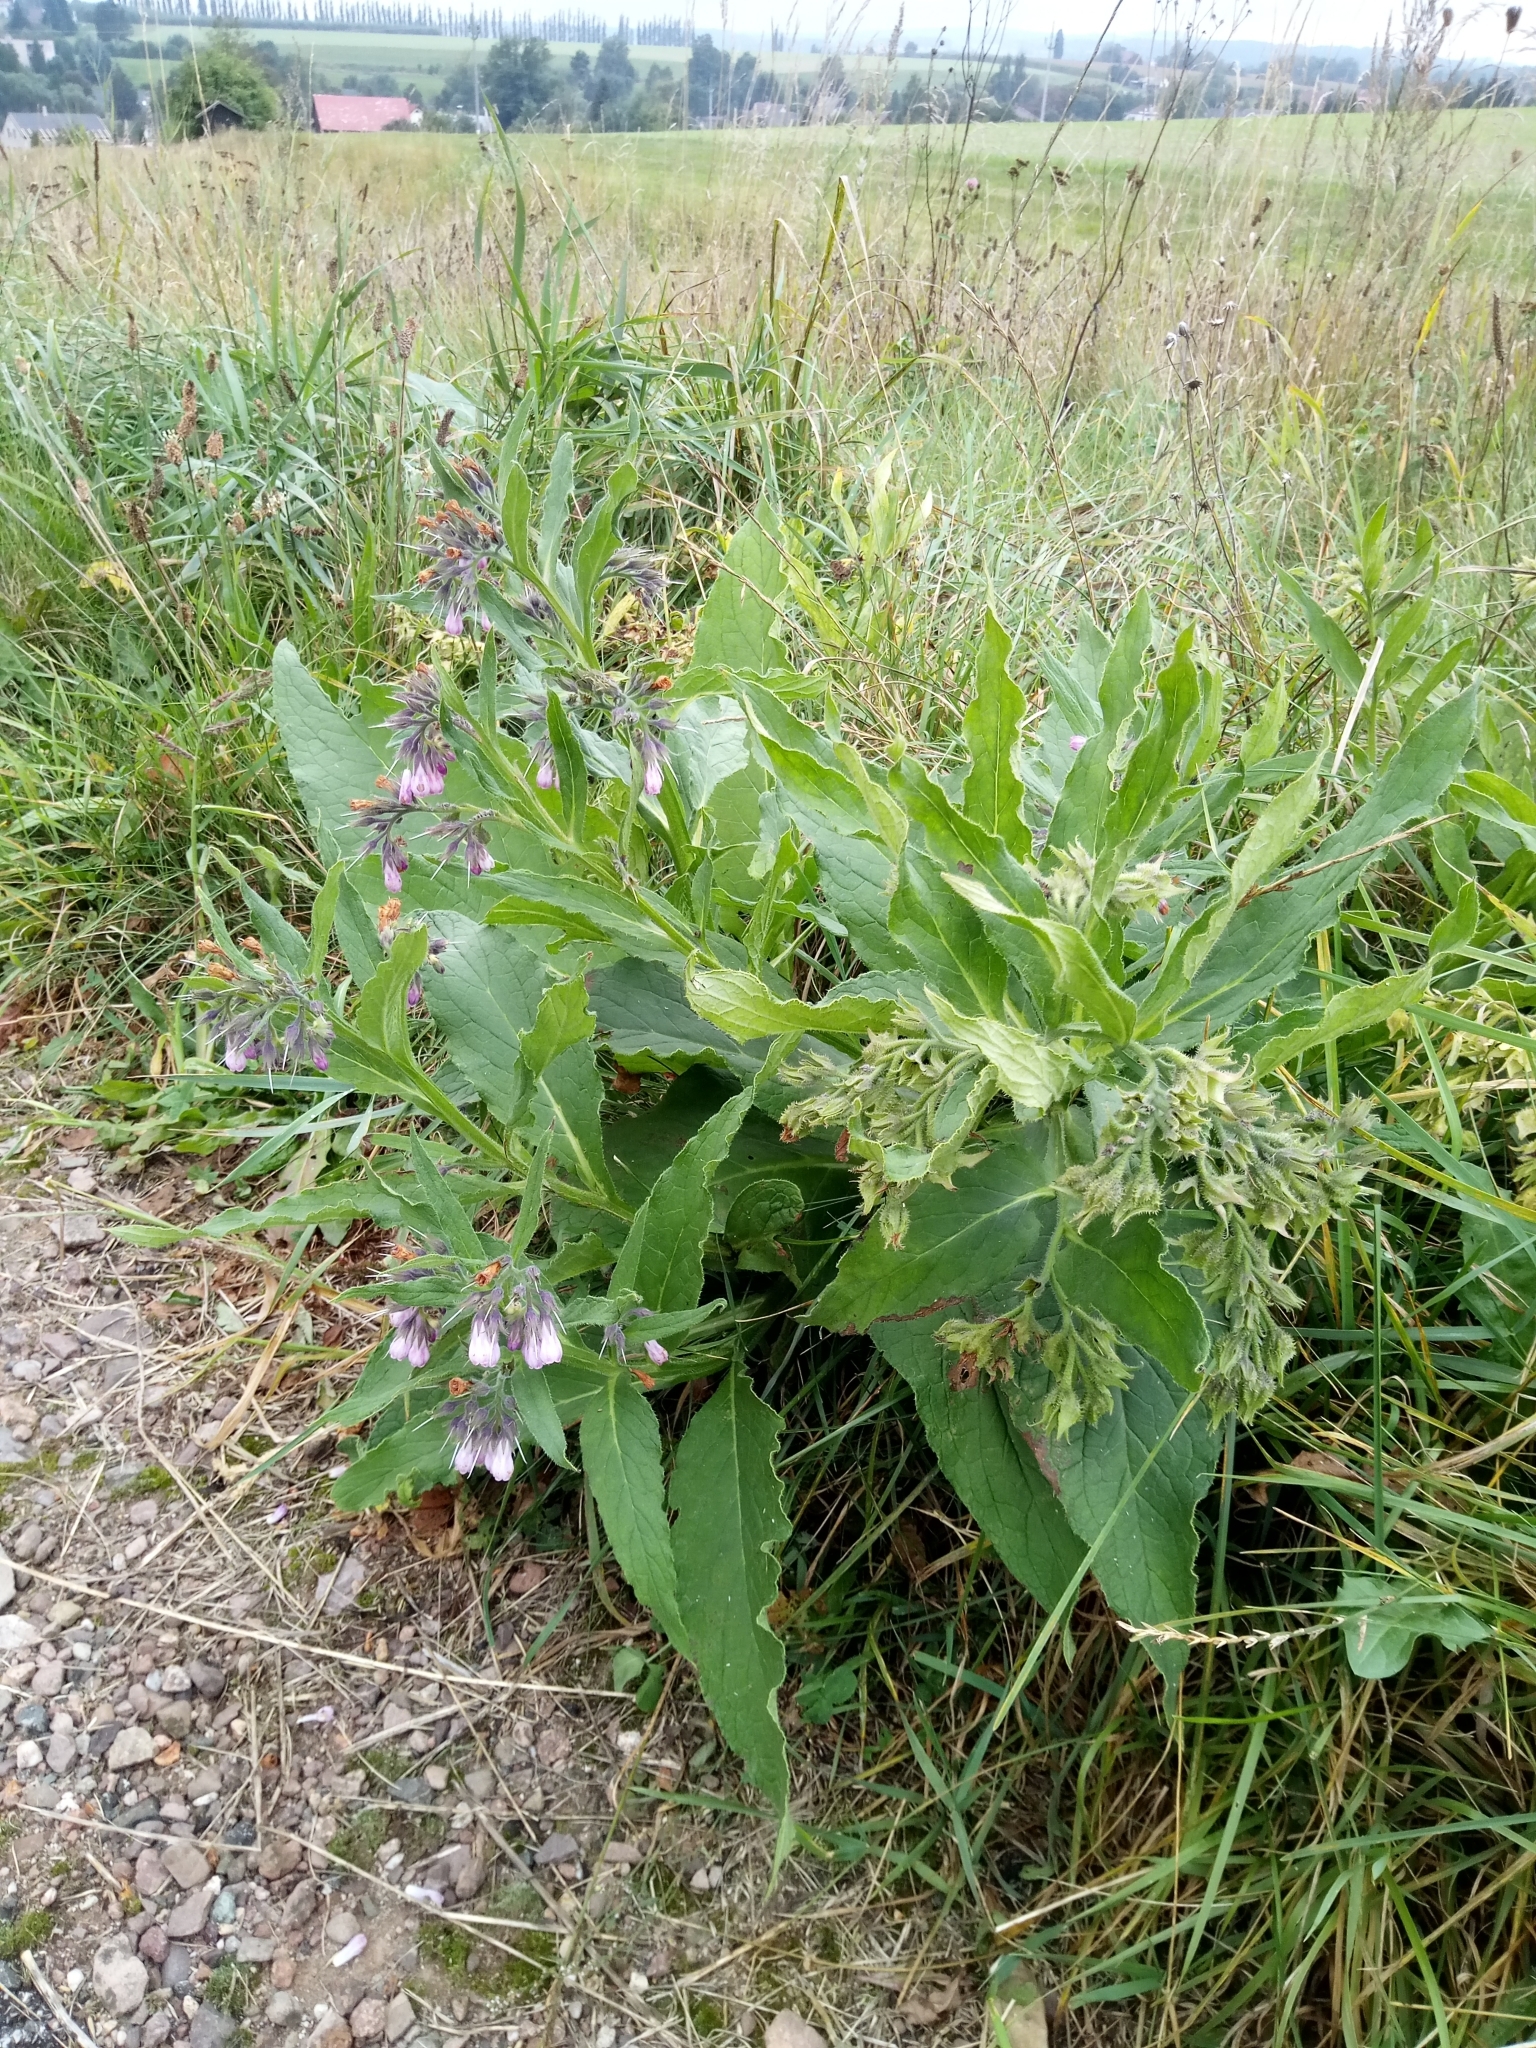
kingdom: Plantae
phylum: Tracheophyta
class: Magnoliopsida
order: Boraginales
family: Boraginaceae
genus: Symphytum
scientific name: Symphytum officinale
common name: Common comfrey
